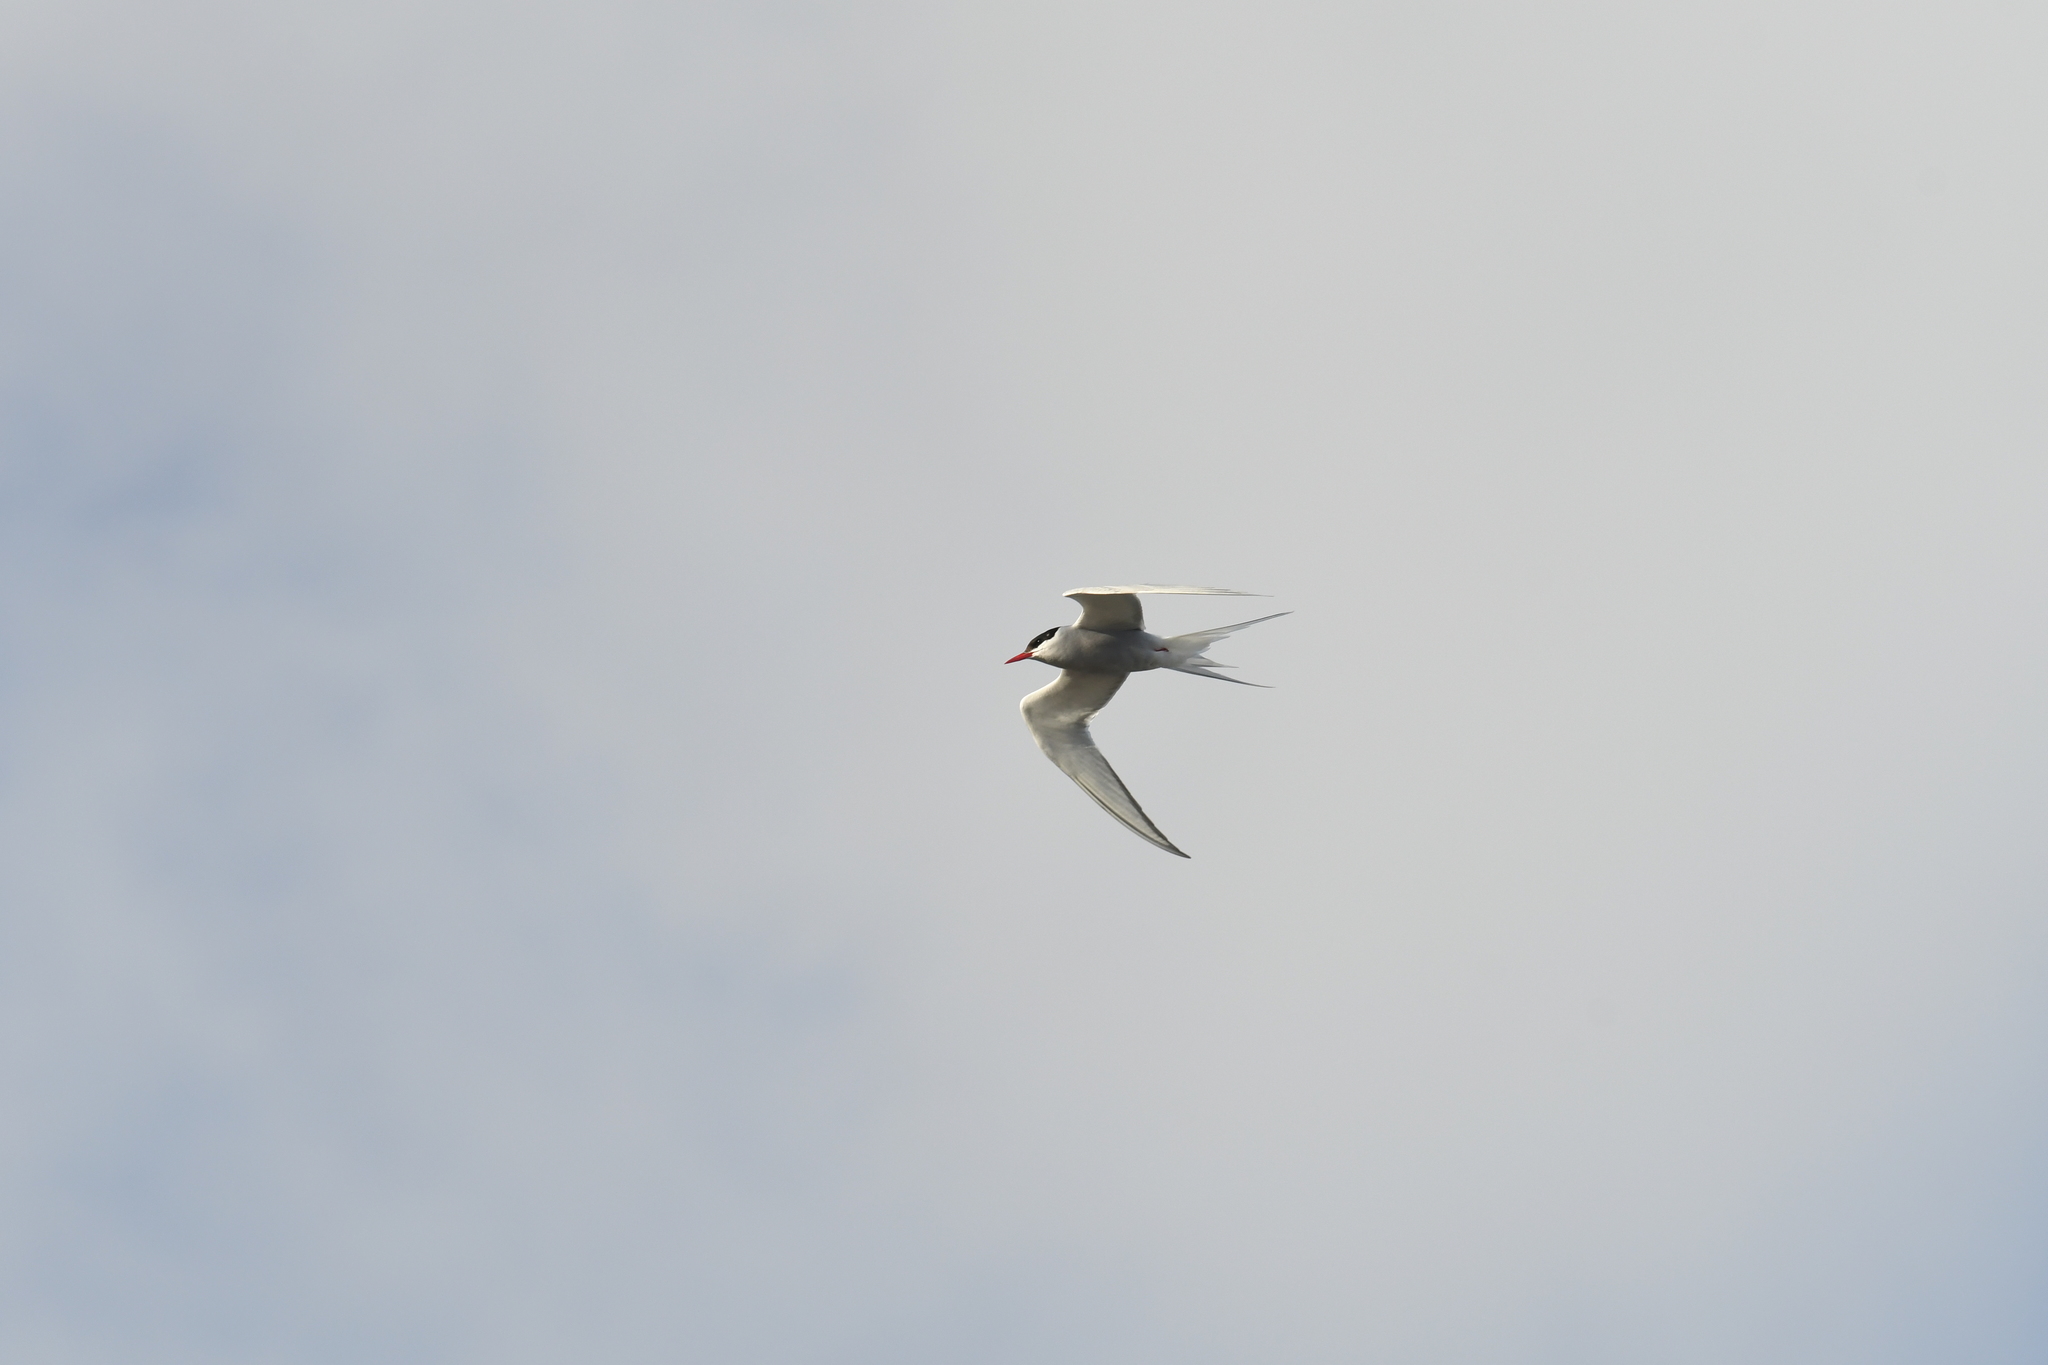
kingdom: Animalia
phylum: Chordata
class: Aves
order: Charadriiformes
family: Laridae
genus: Sterna
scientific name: Sterna paradisaea
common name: Arctic tern
